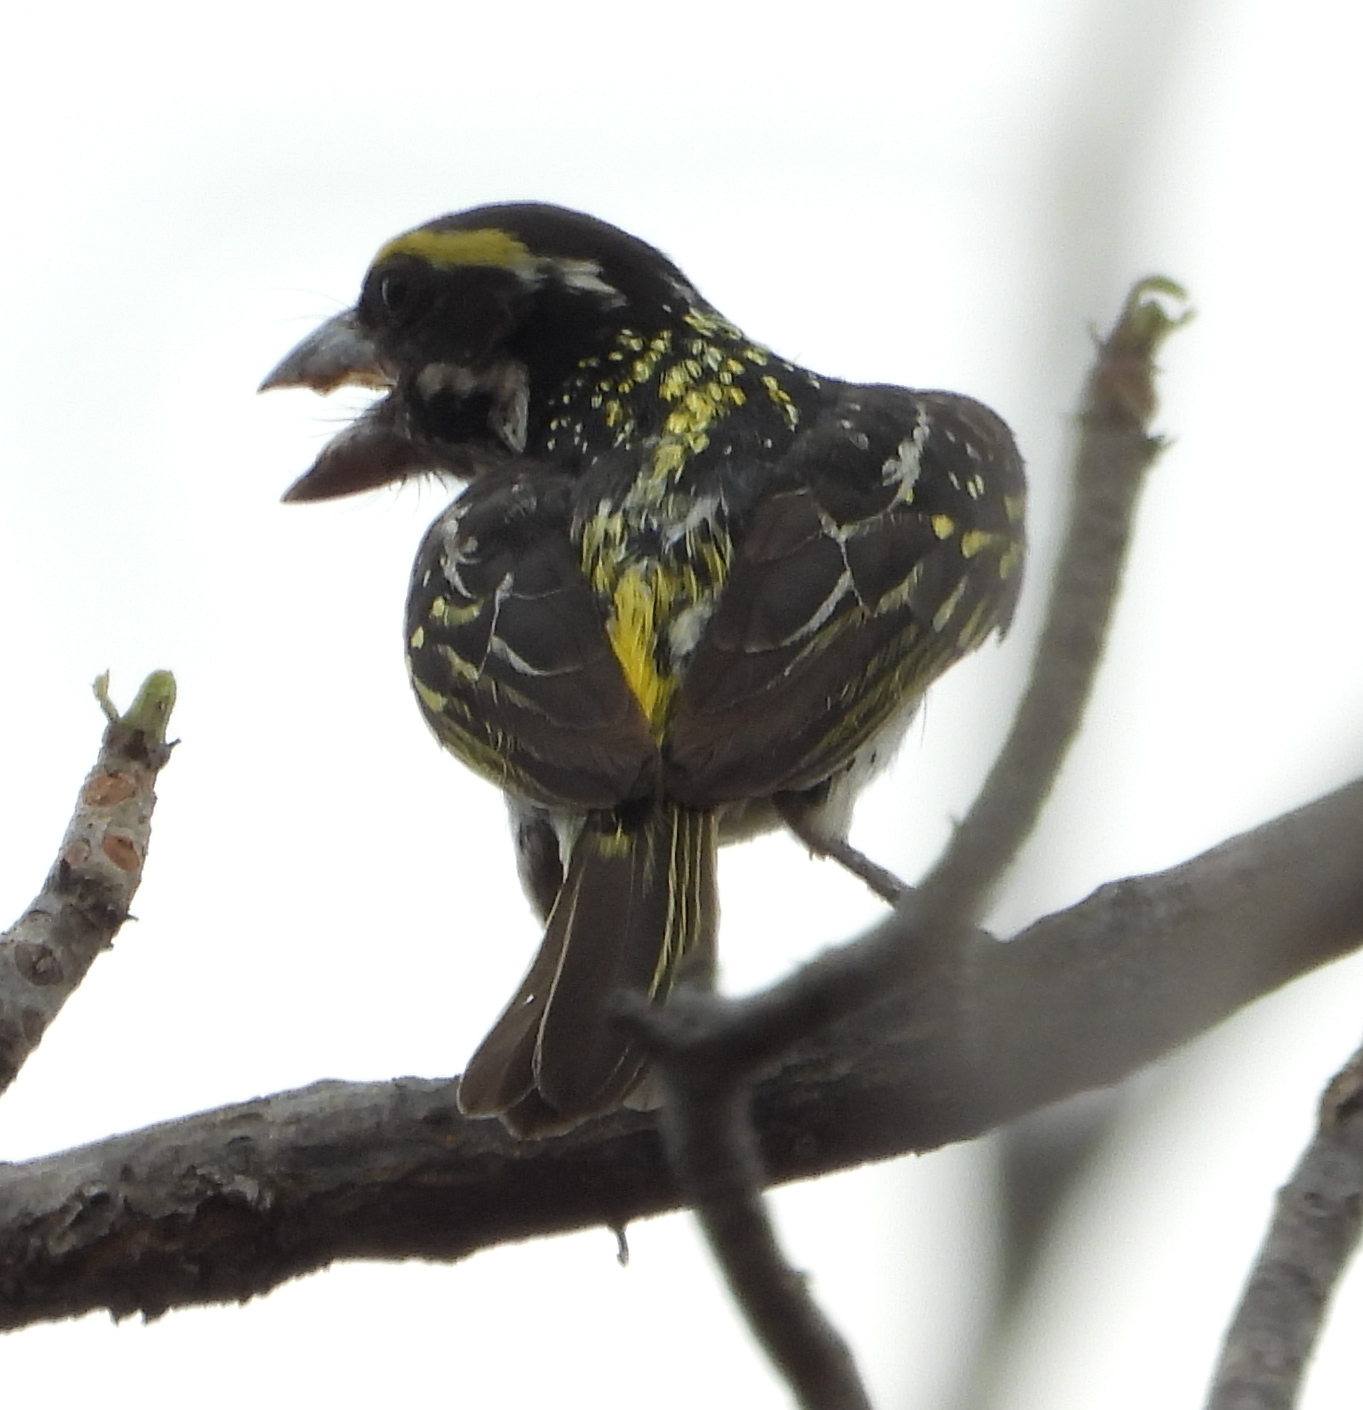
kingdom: Animalia
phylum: Chordata
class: Aves
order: Piciformes
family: Lybiidae
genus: Tricholaema
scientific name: Tricholaema frontata
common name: Miombo pied barbet
